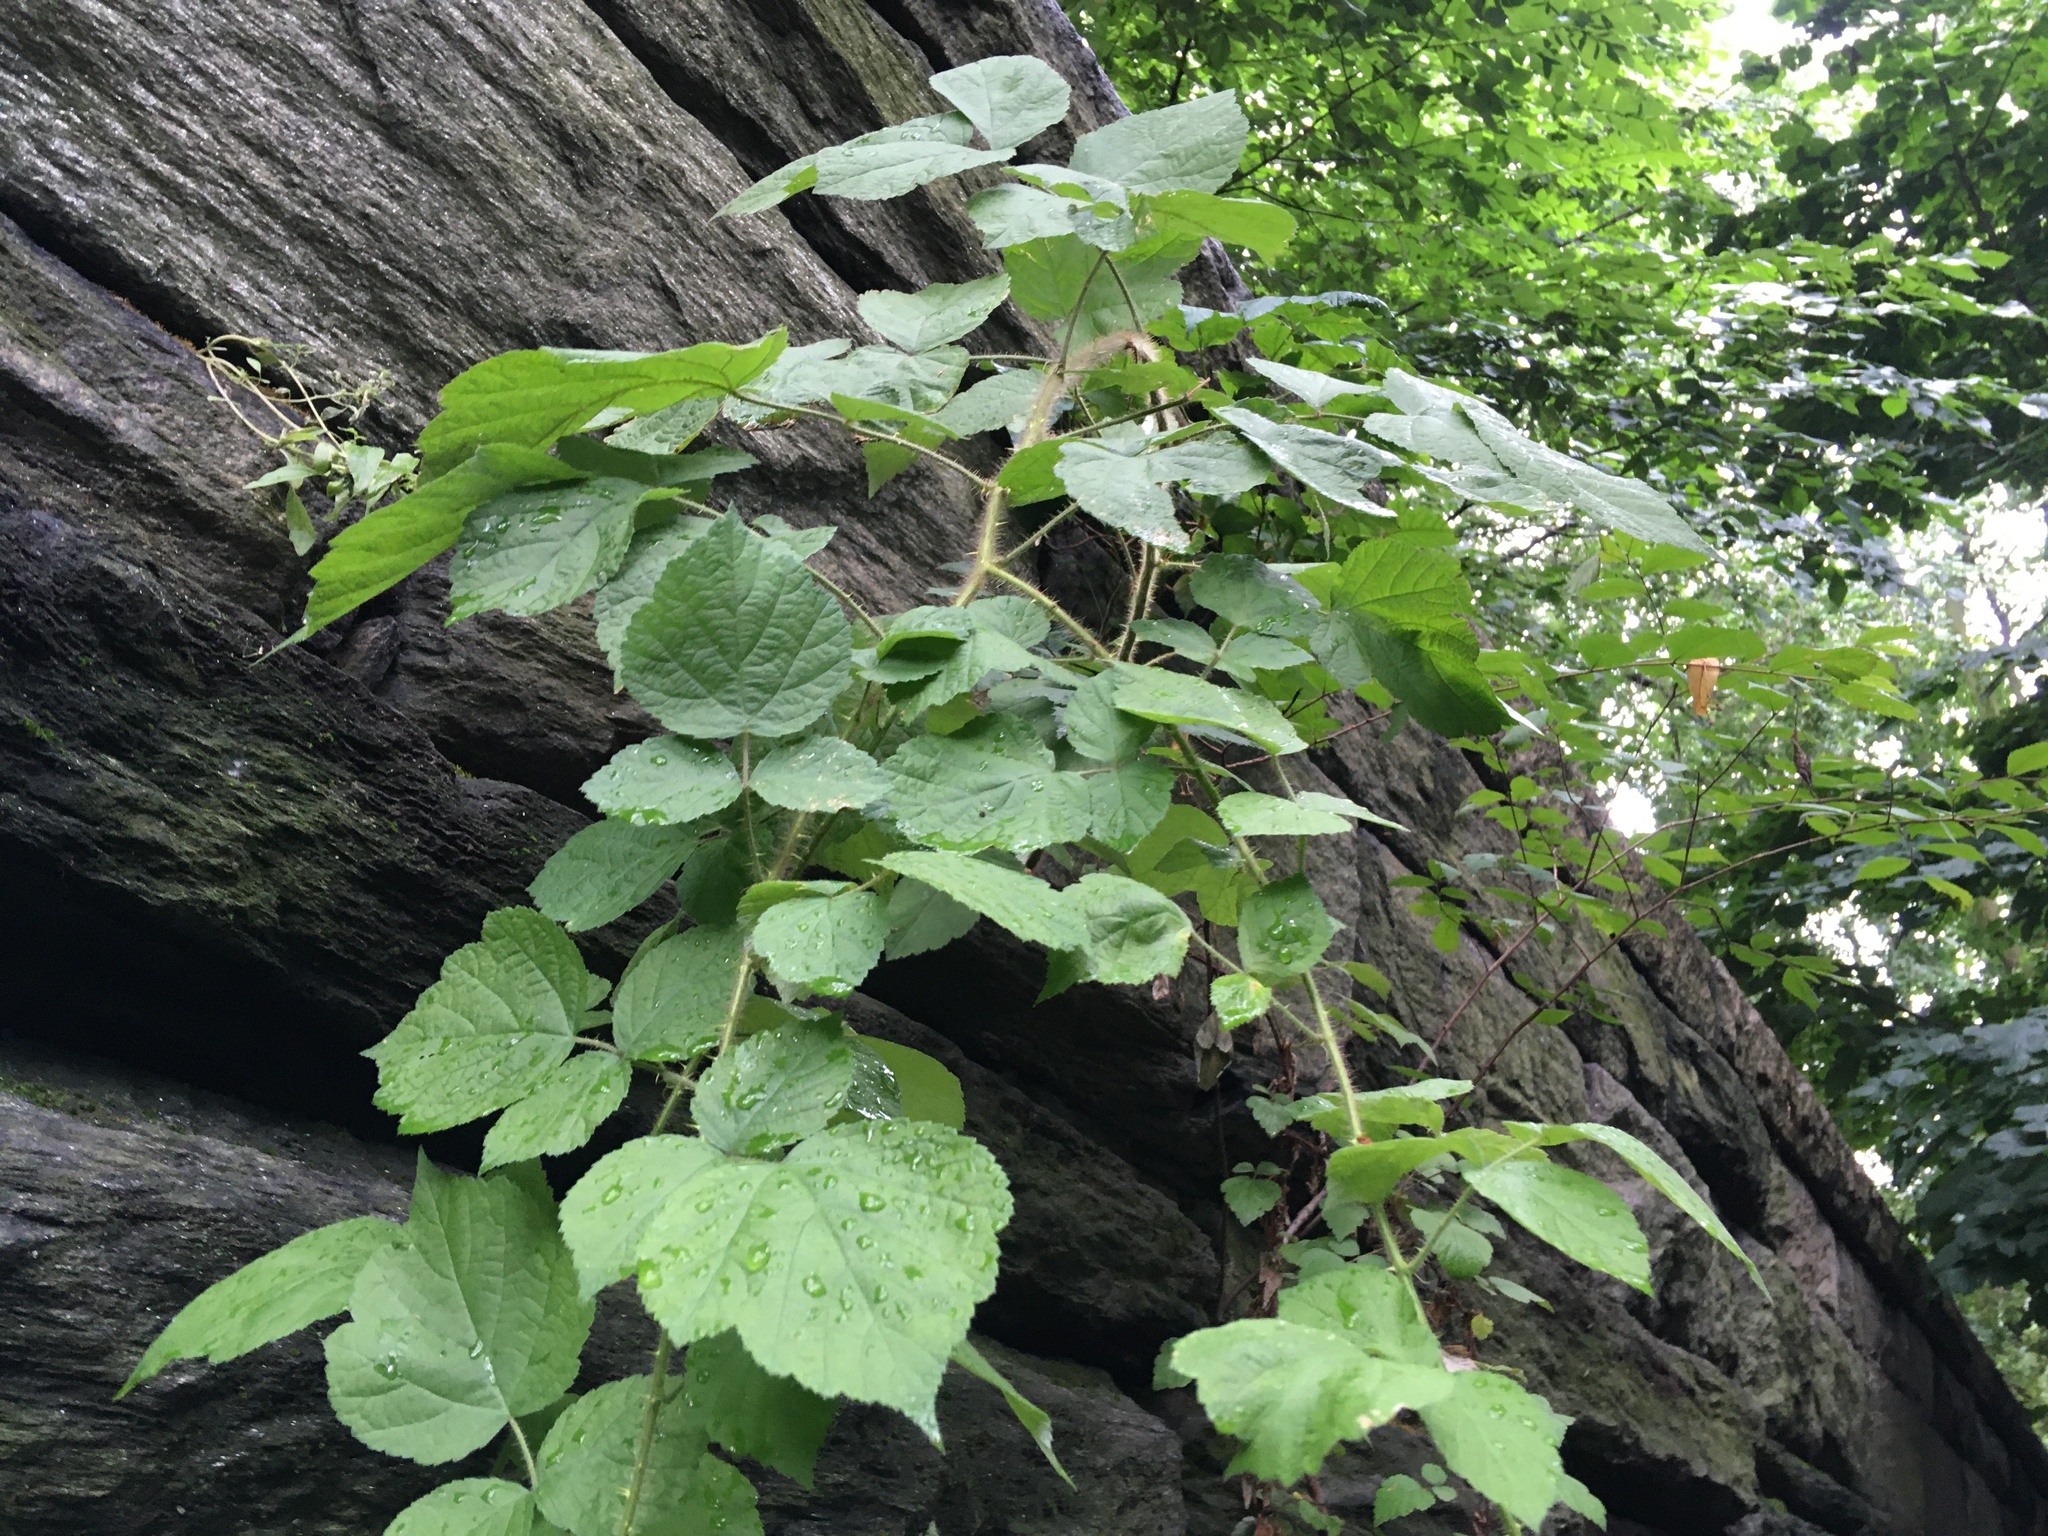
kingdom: Plantae
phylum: Tracheophyta
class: Magnoliopsida
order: Rosales
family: Rosaceae
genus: Rubus
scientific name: Rubus phoenicolasius
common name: Japanese wineberry
